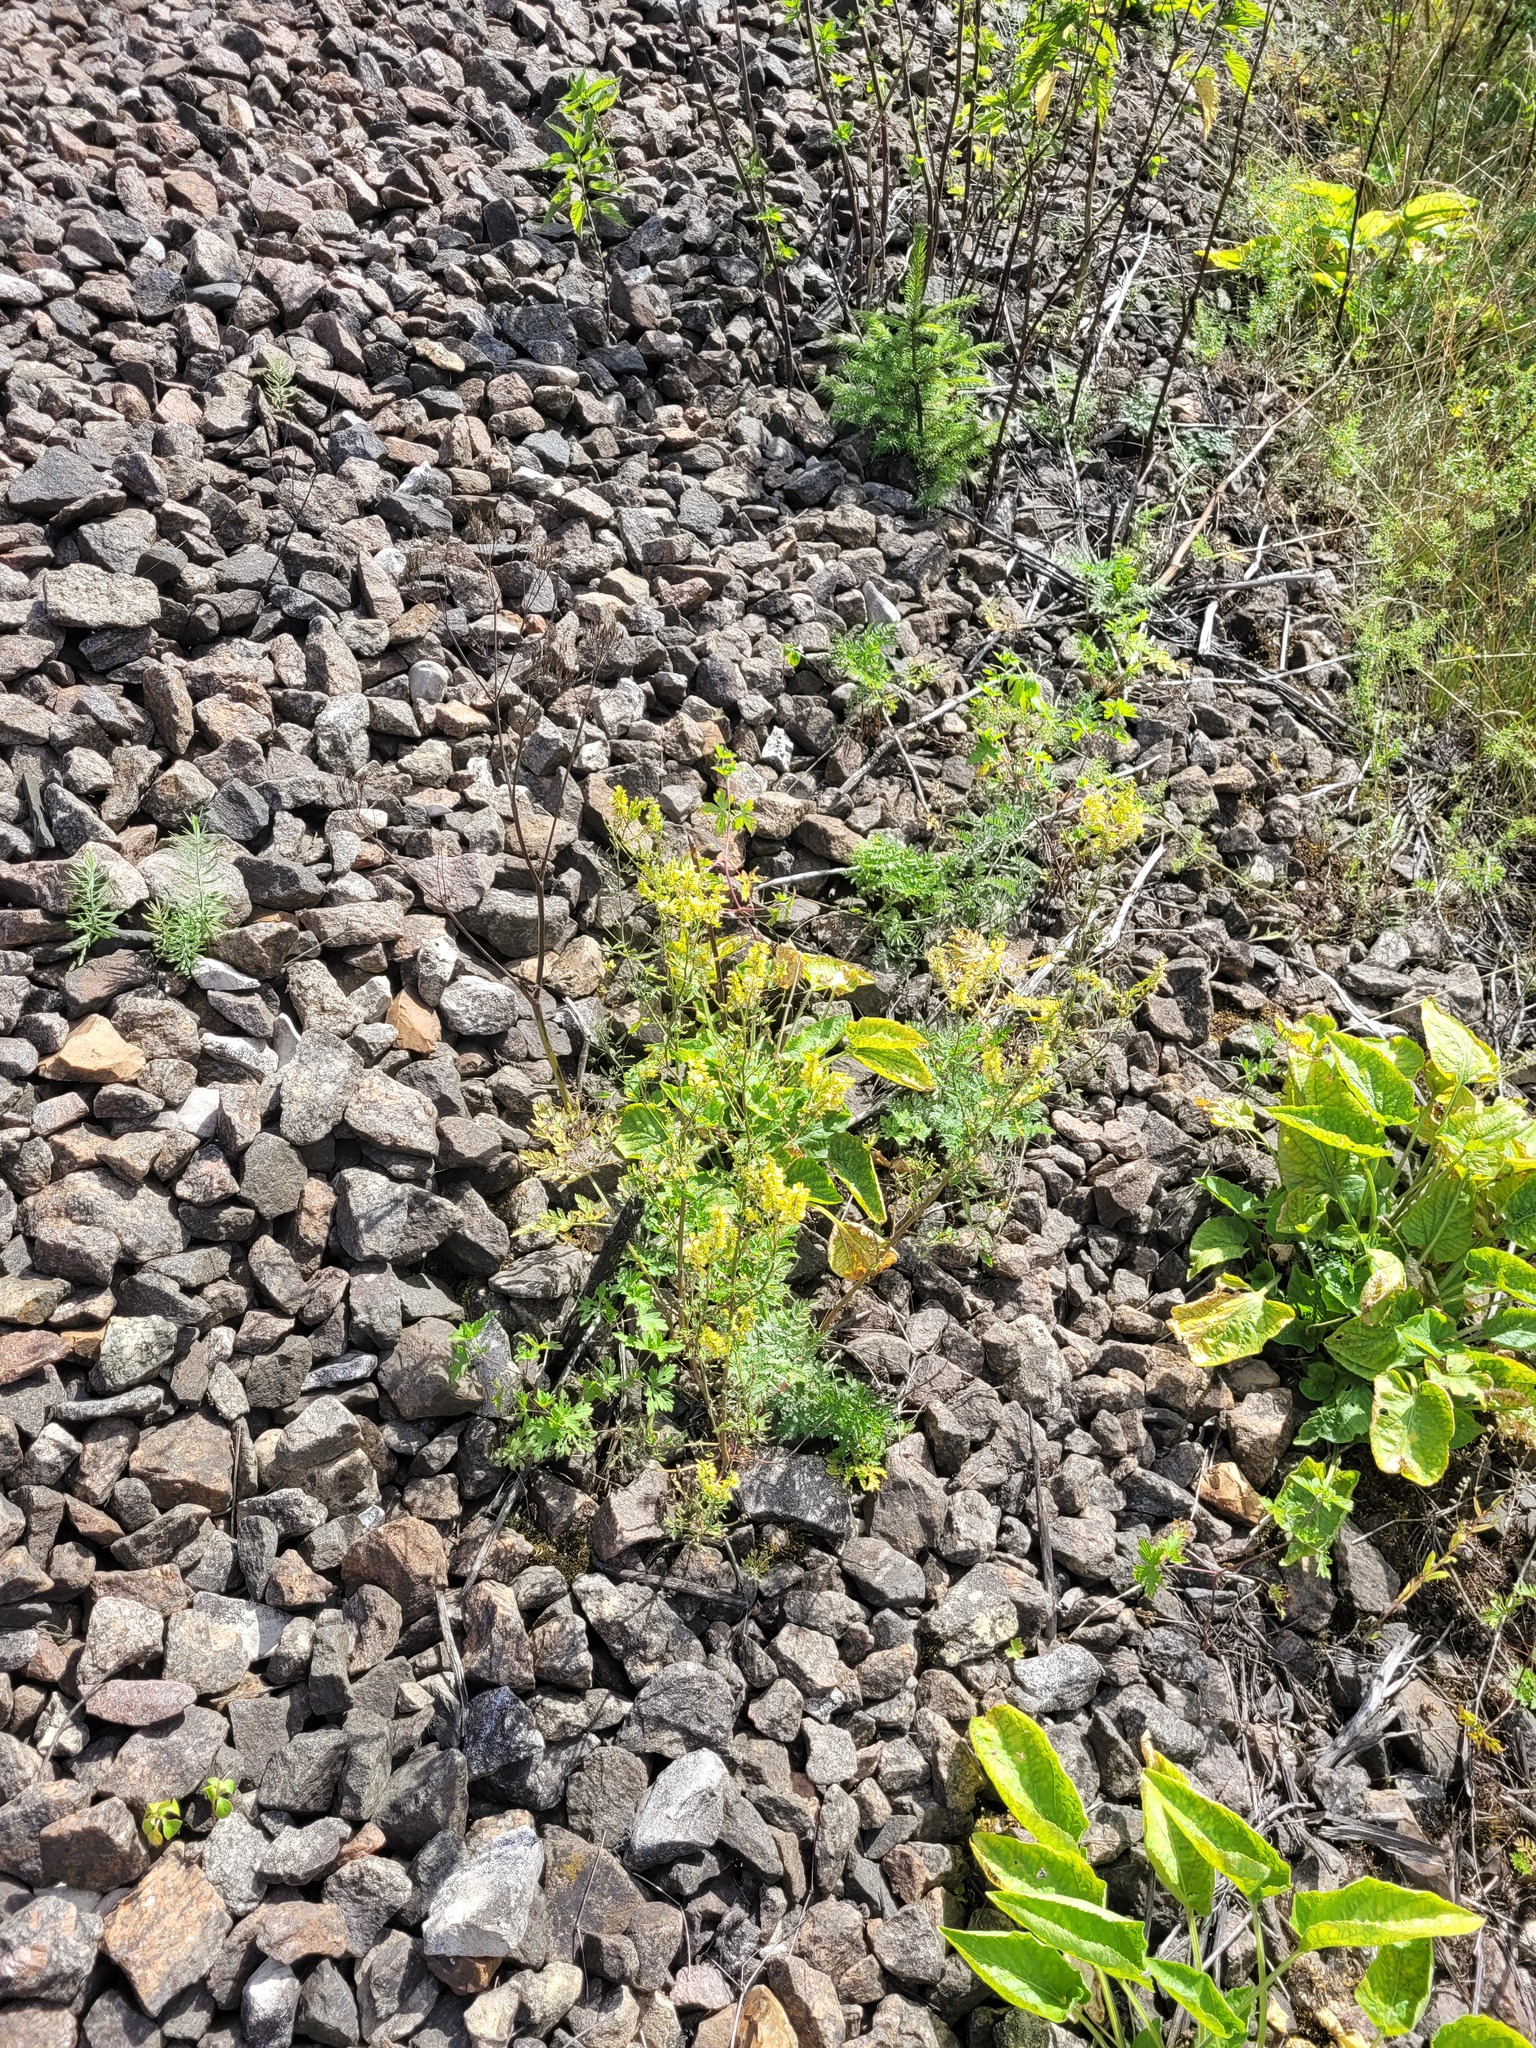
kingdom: Plantae
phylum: Tracheophyta
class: Magnoliopsida
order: Fabales
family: Fabaceae
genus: Melilotus
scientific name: Melilotus officinalis
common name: Sweetclover
